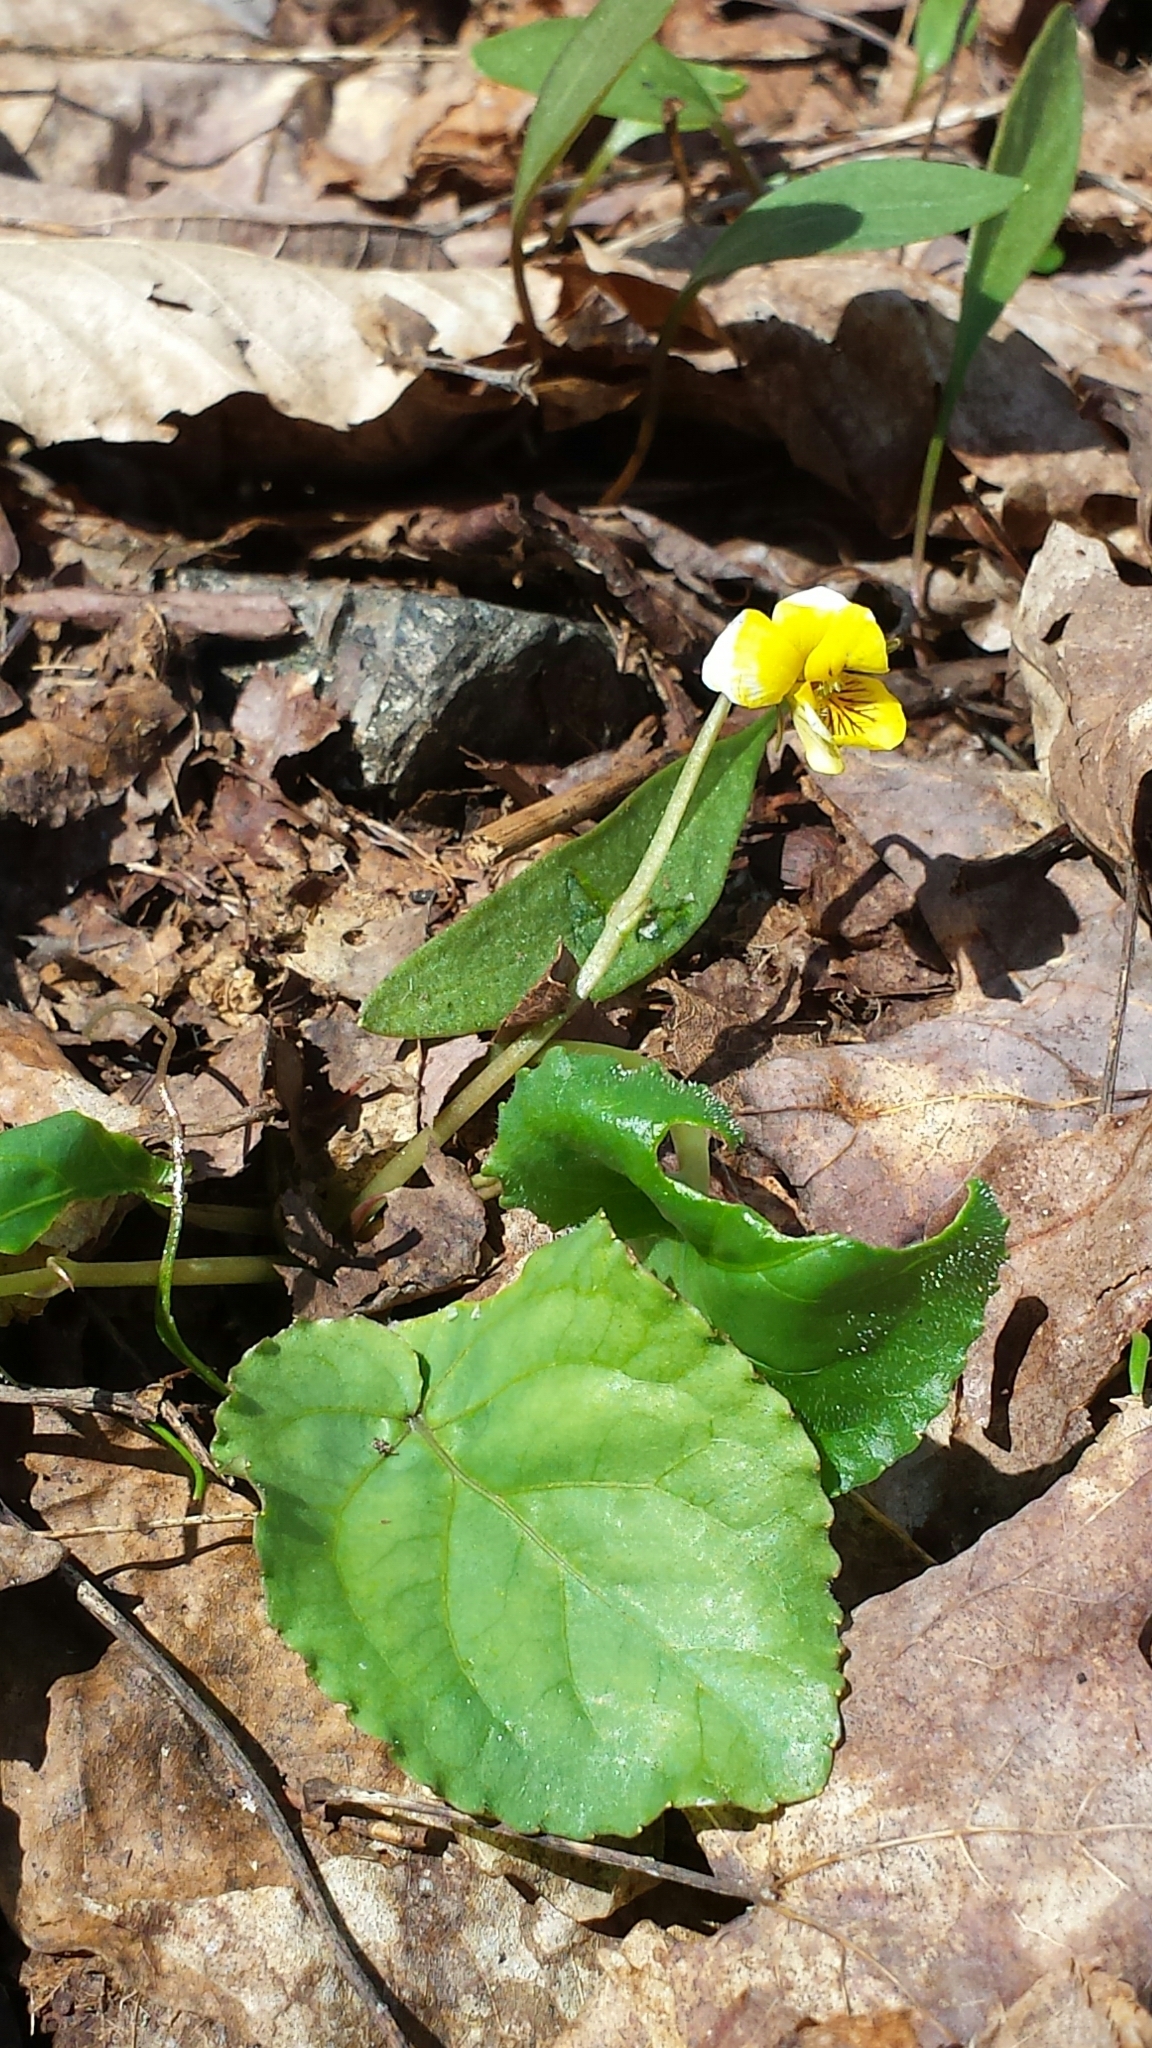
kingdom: Plantae
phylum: Tracheophyta
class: Magnoliopsida
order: Malpighiales
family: Violaceae
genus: Viola
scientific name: Viola rotundifolia
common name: Early yellow violet
